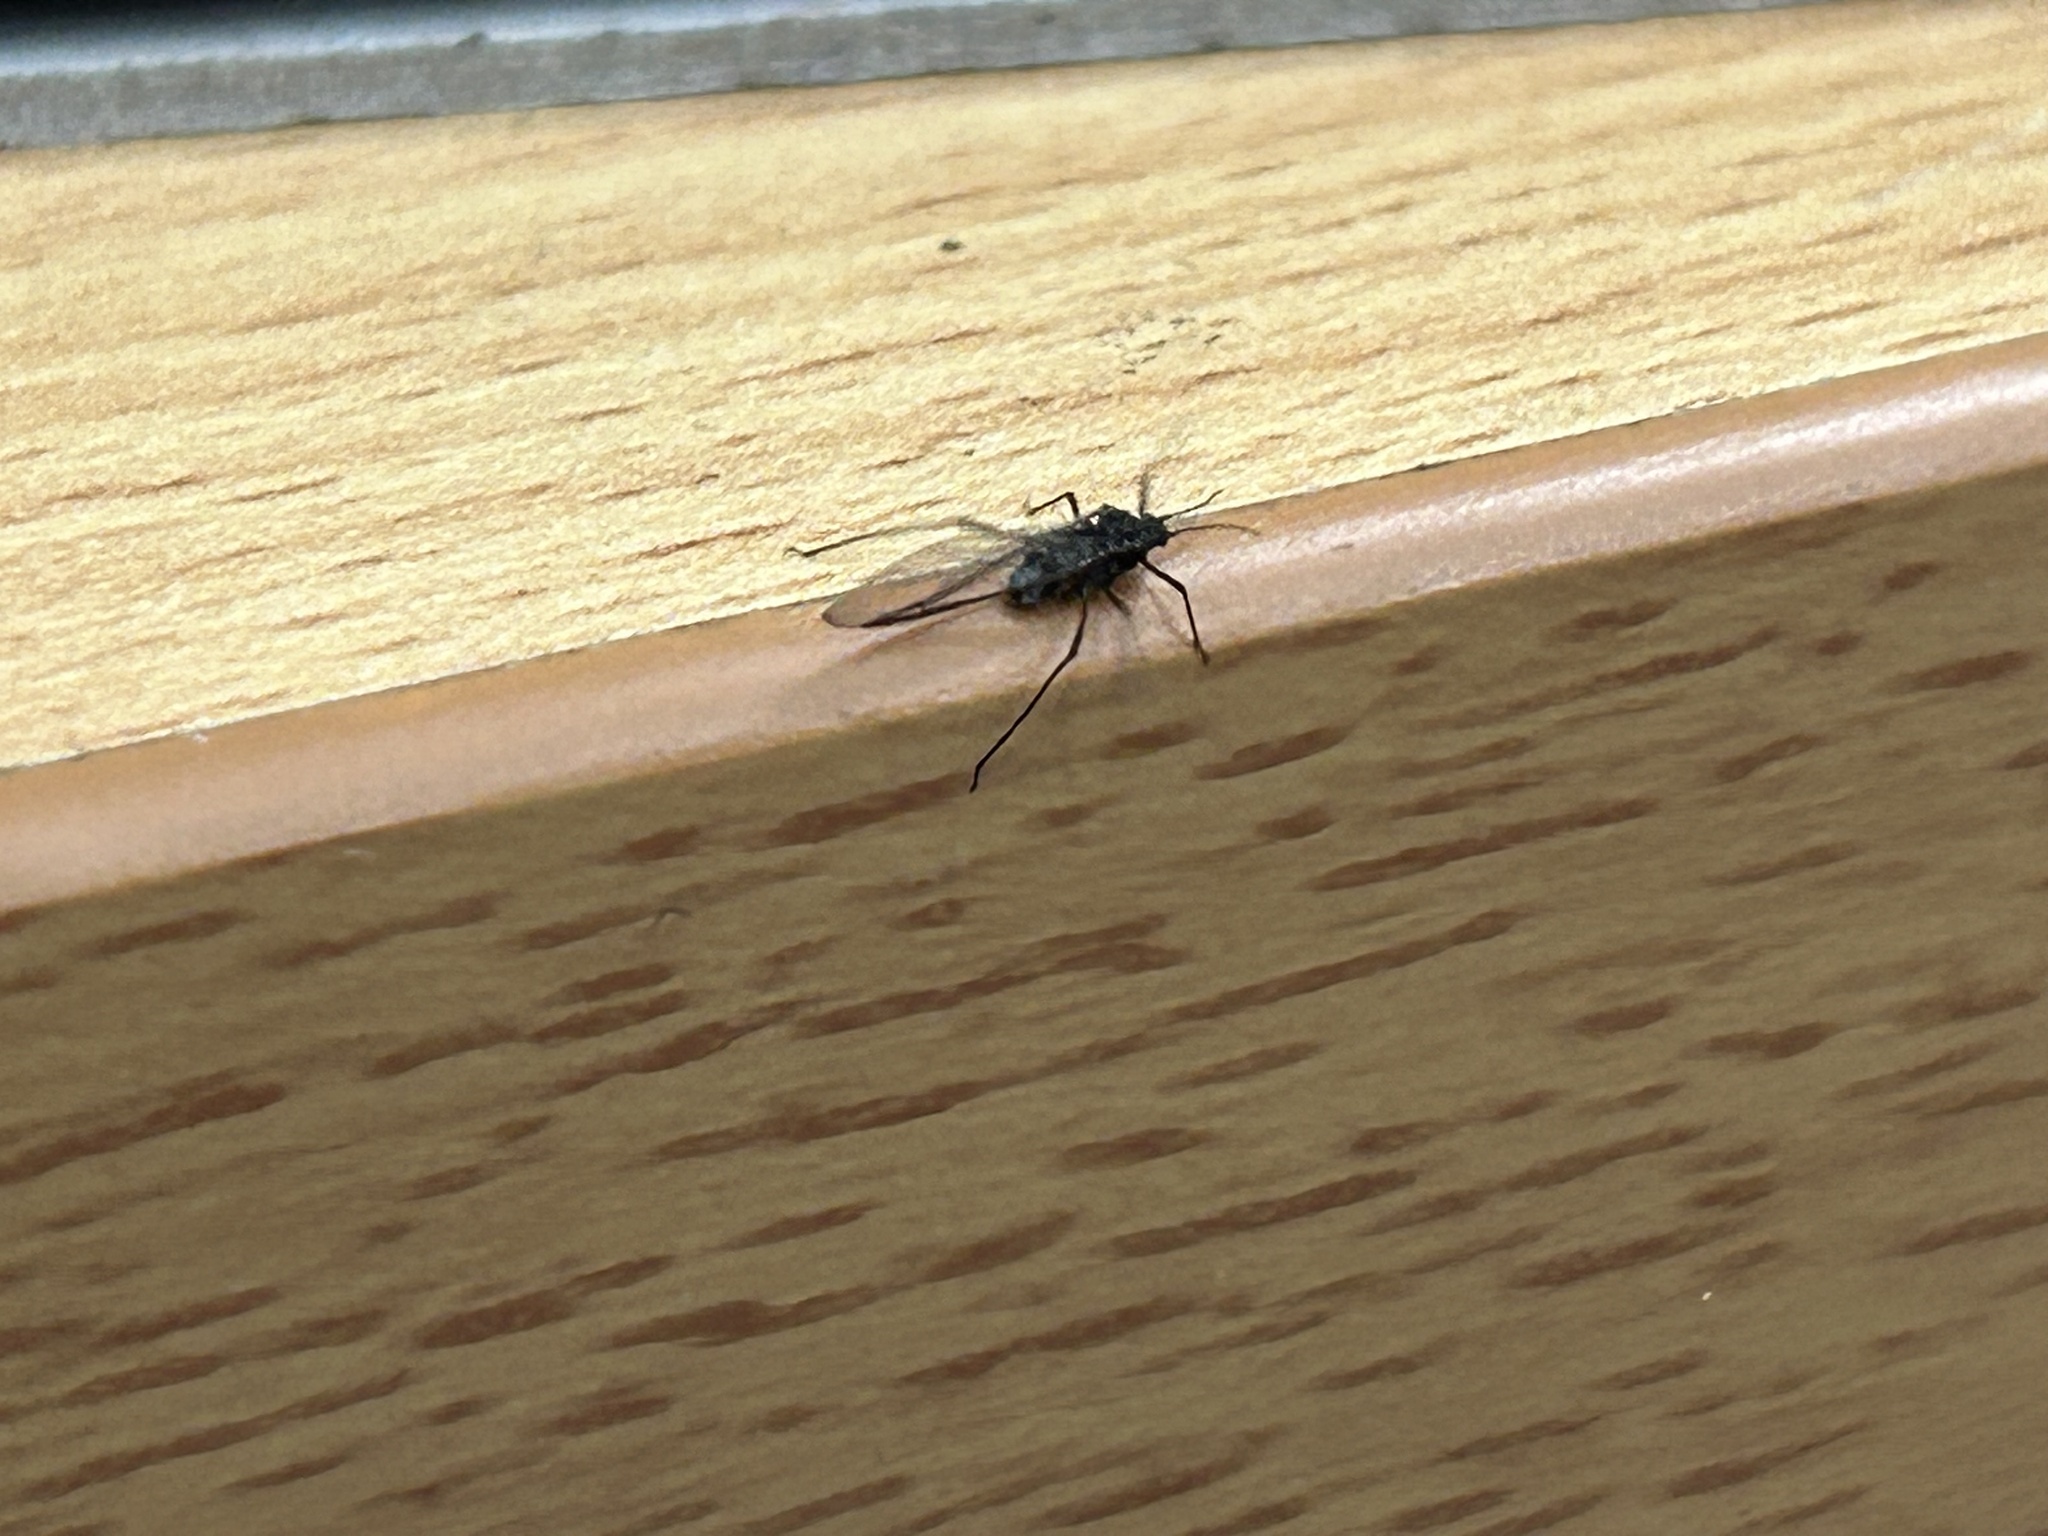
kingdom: Animalia
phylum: Arthropoda
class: Insecta
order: Hemiptera
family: Aphididae
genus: Tuberolachnus
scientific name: Tuberolachnus salignus
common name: Giant willow aphid
